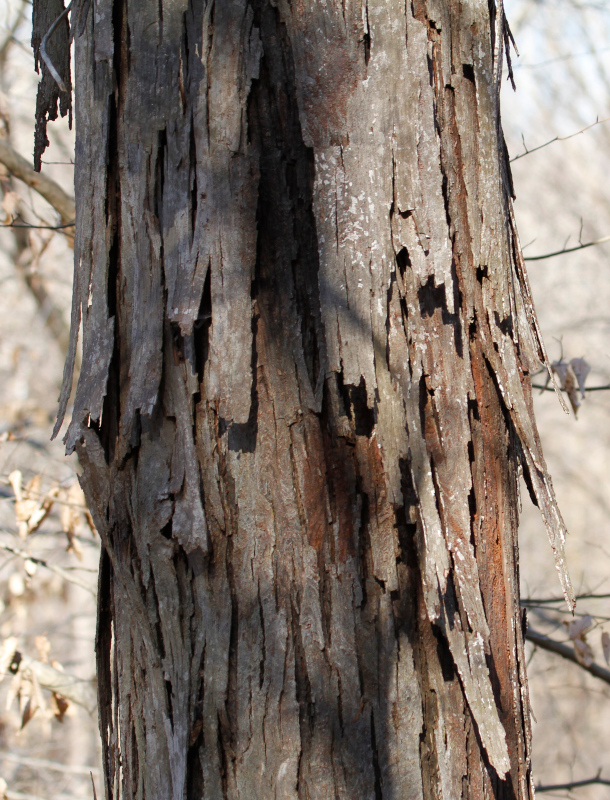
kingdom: Plantae
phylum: Tracheophyta
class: Magnoliopsida
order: Fagales
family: Juglandaceae
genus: Carya
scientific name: Carya ovata
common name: Shagbark hickory
